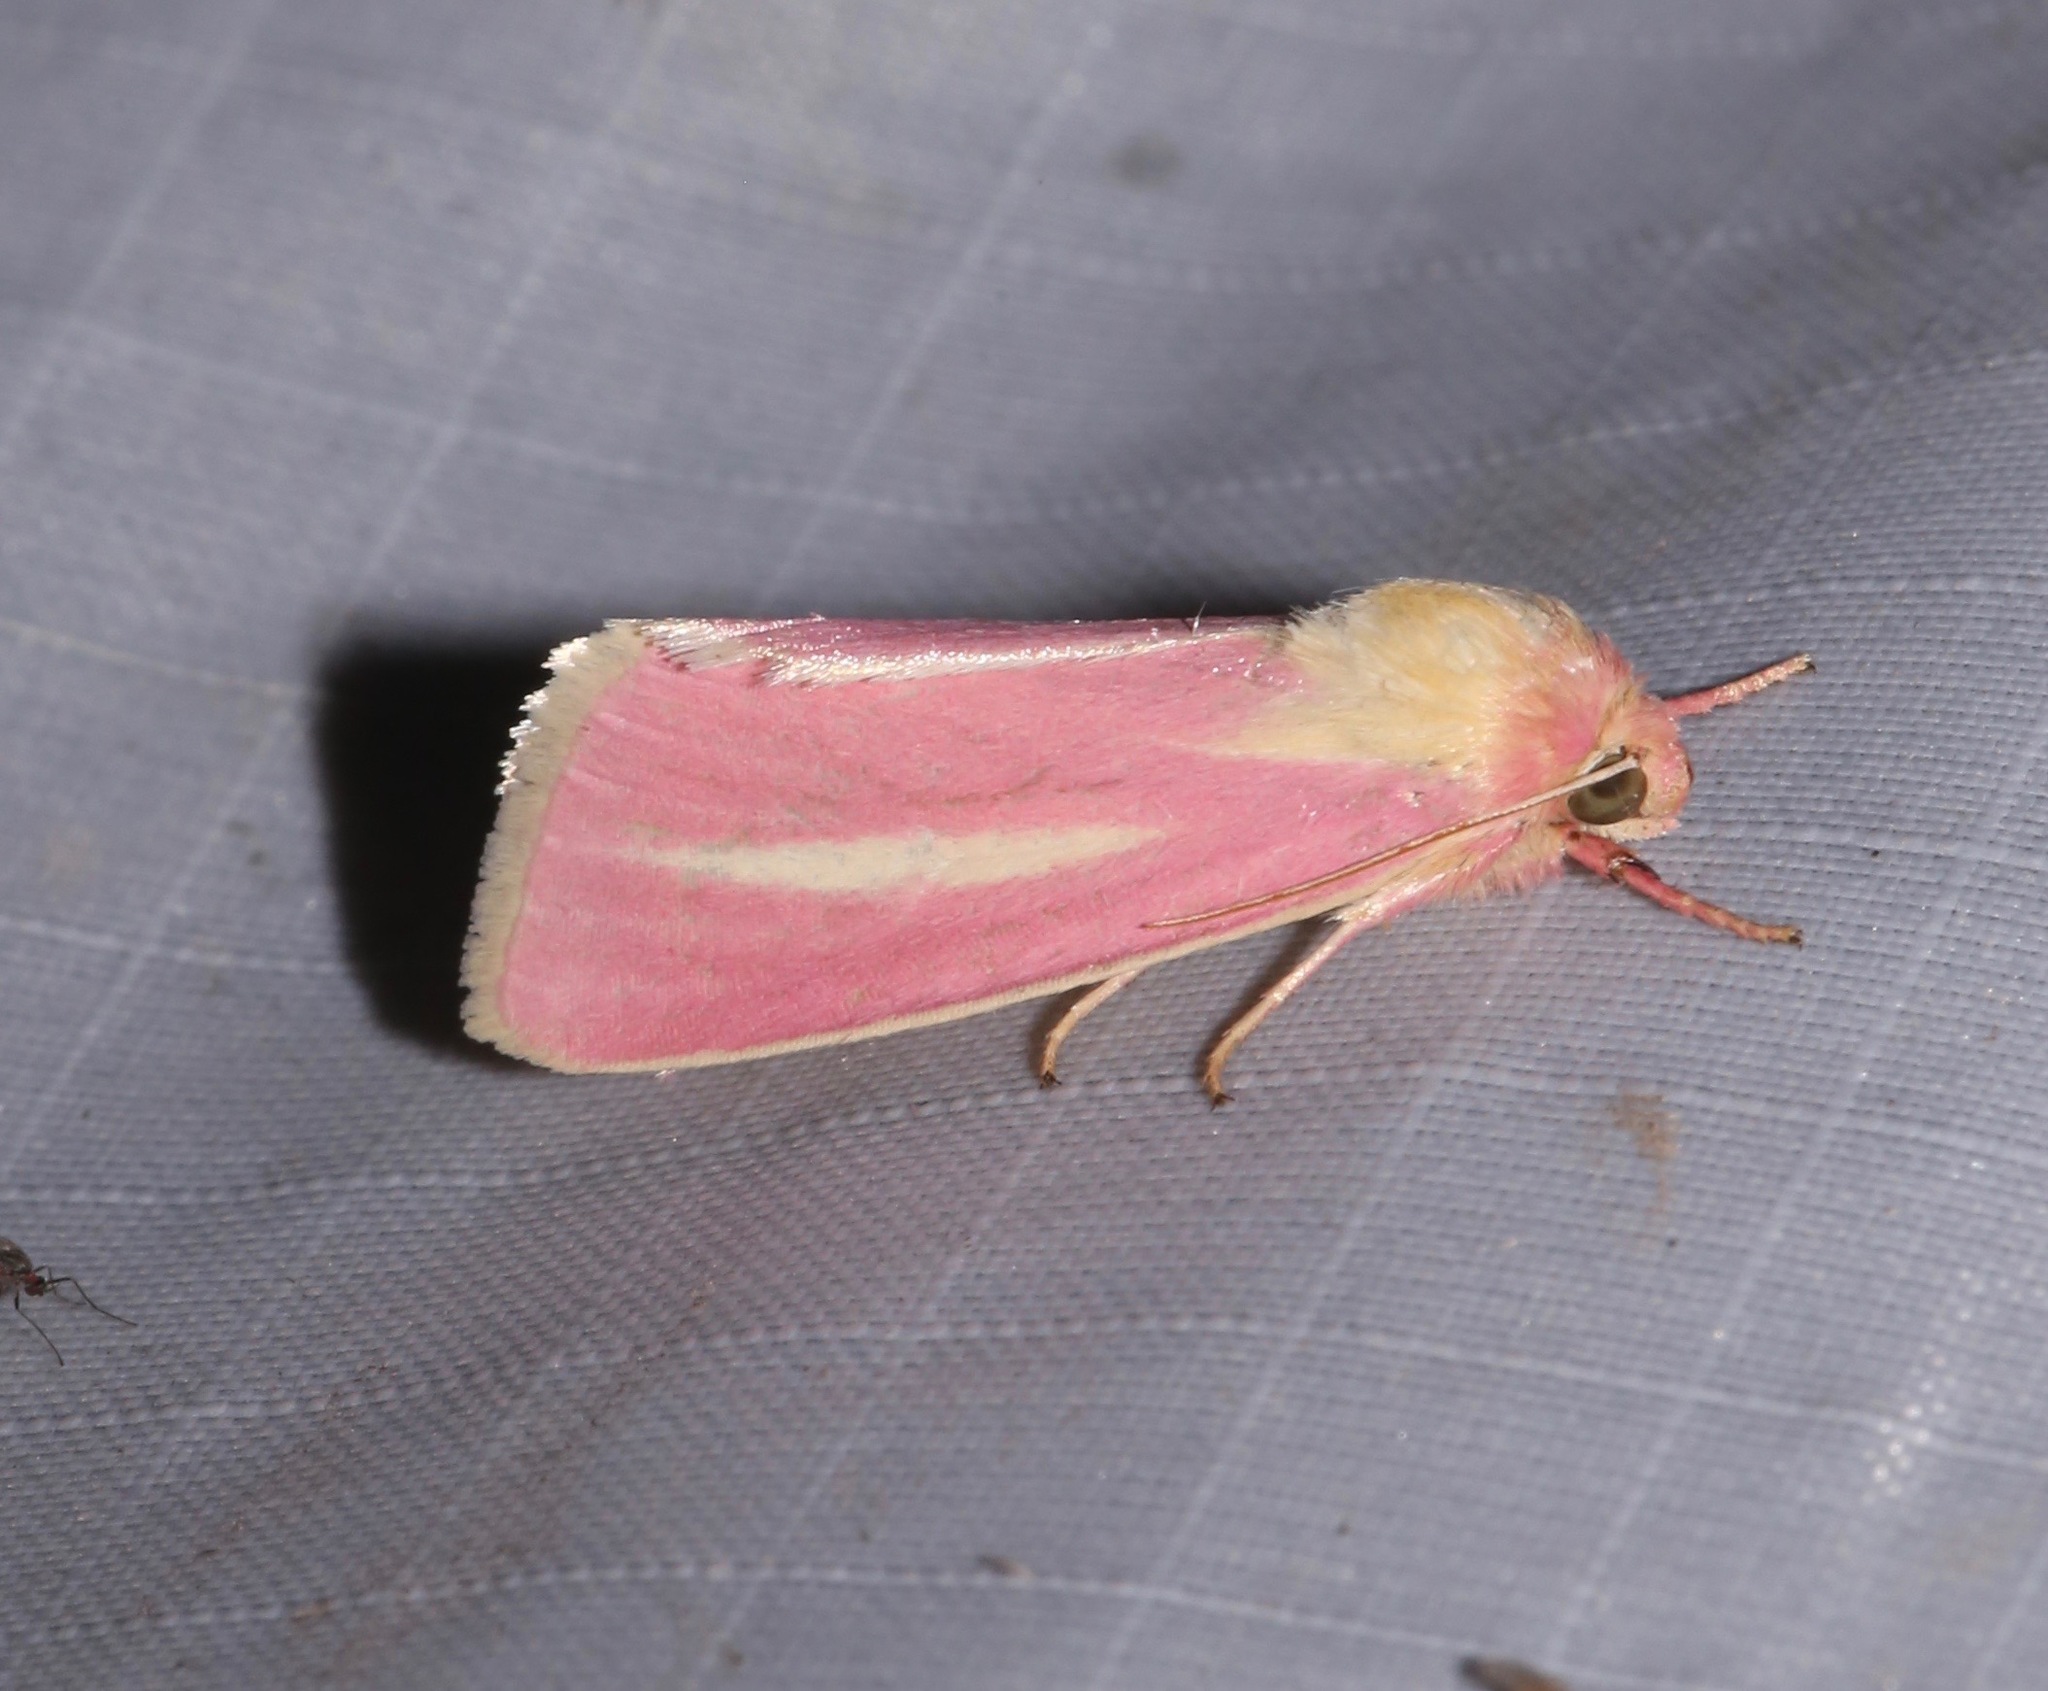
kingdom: Animalia
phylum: Arthropoda
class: Insecta
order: Lepidoptera
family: Noctuidae
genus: Heliocheilus
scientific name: Heliocheilus julia
